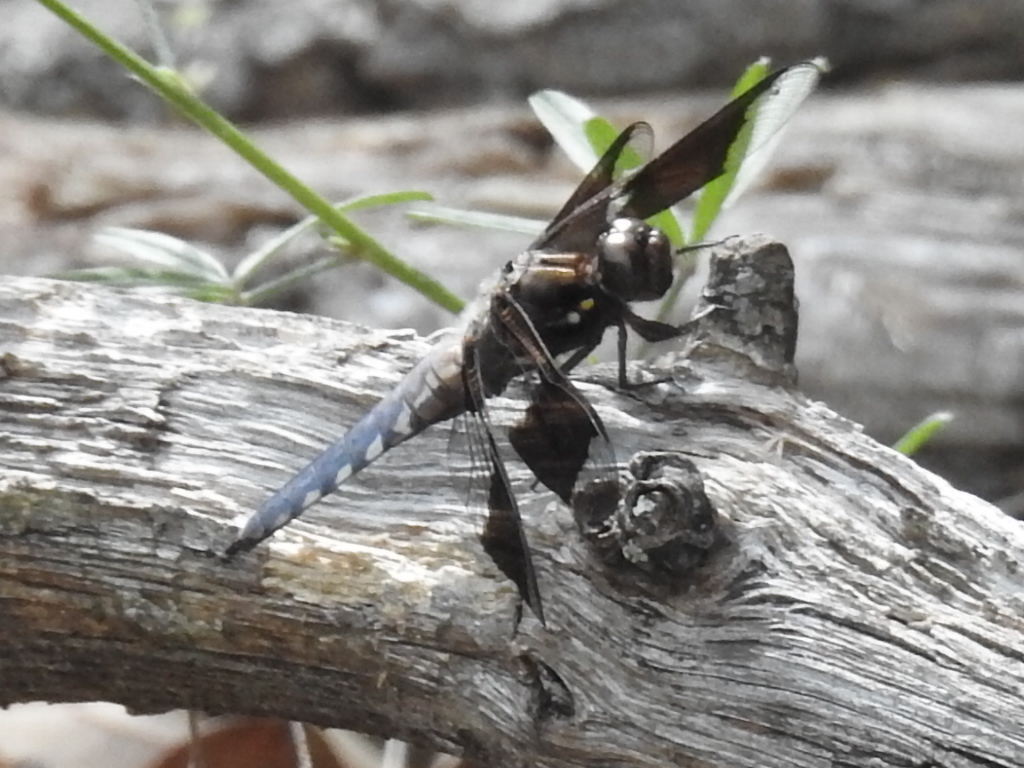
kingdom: Animalia
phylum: Arthropoda
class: Insecta
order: Odonata
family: Libellulidae
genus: Plathemis
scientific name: Plathemis lydia
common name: Common whitetail
